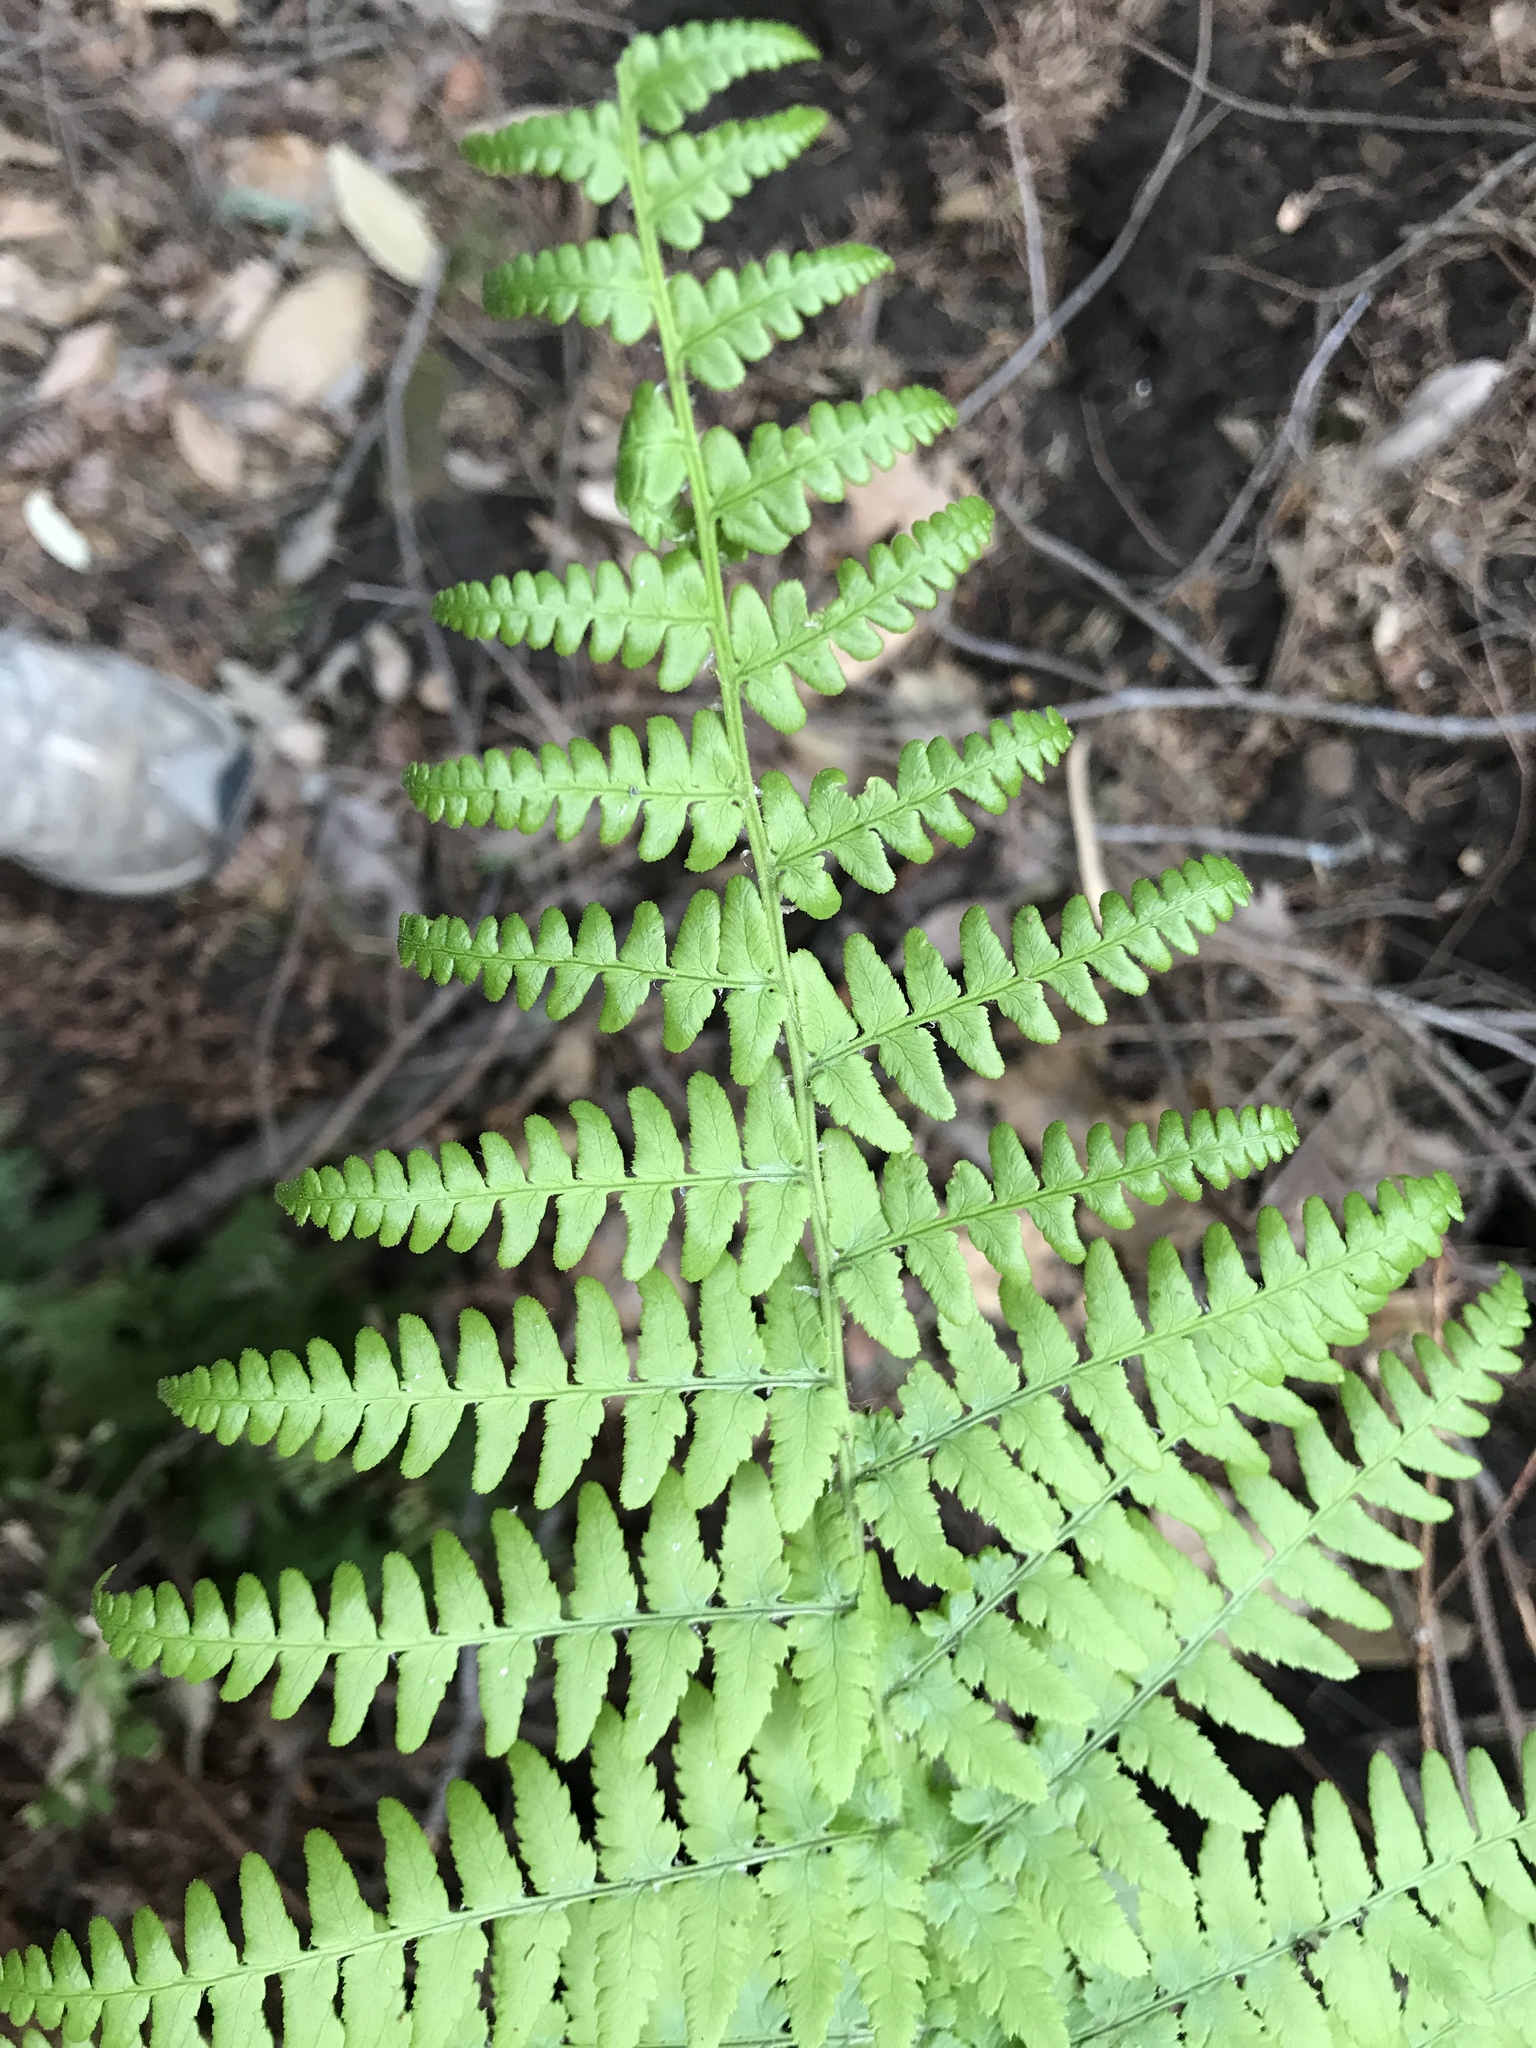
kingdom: Plantae
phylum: Tracheophyta
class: Polypodiopsida
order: Polypodiales
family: Dryopteridaceae
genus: Dryopteris
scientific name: Dryopteris arguta
